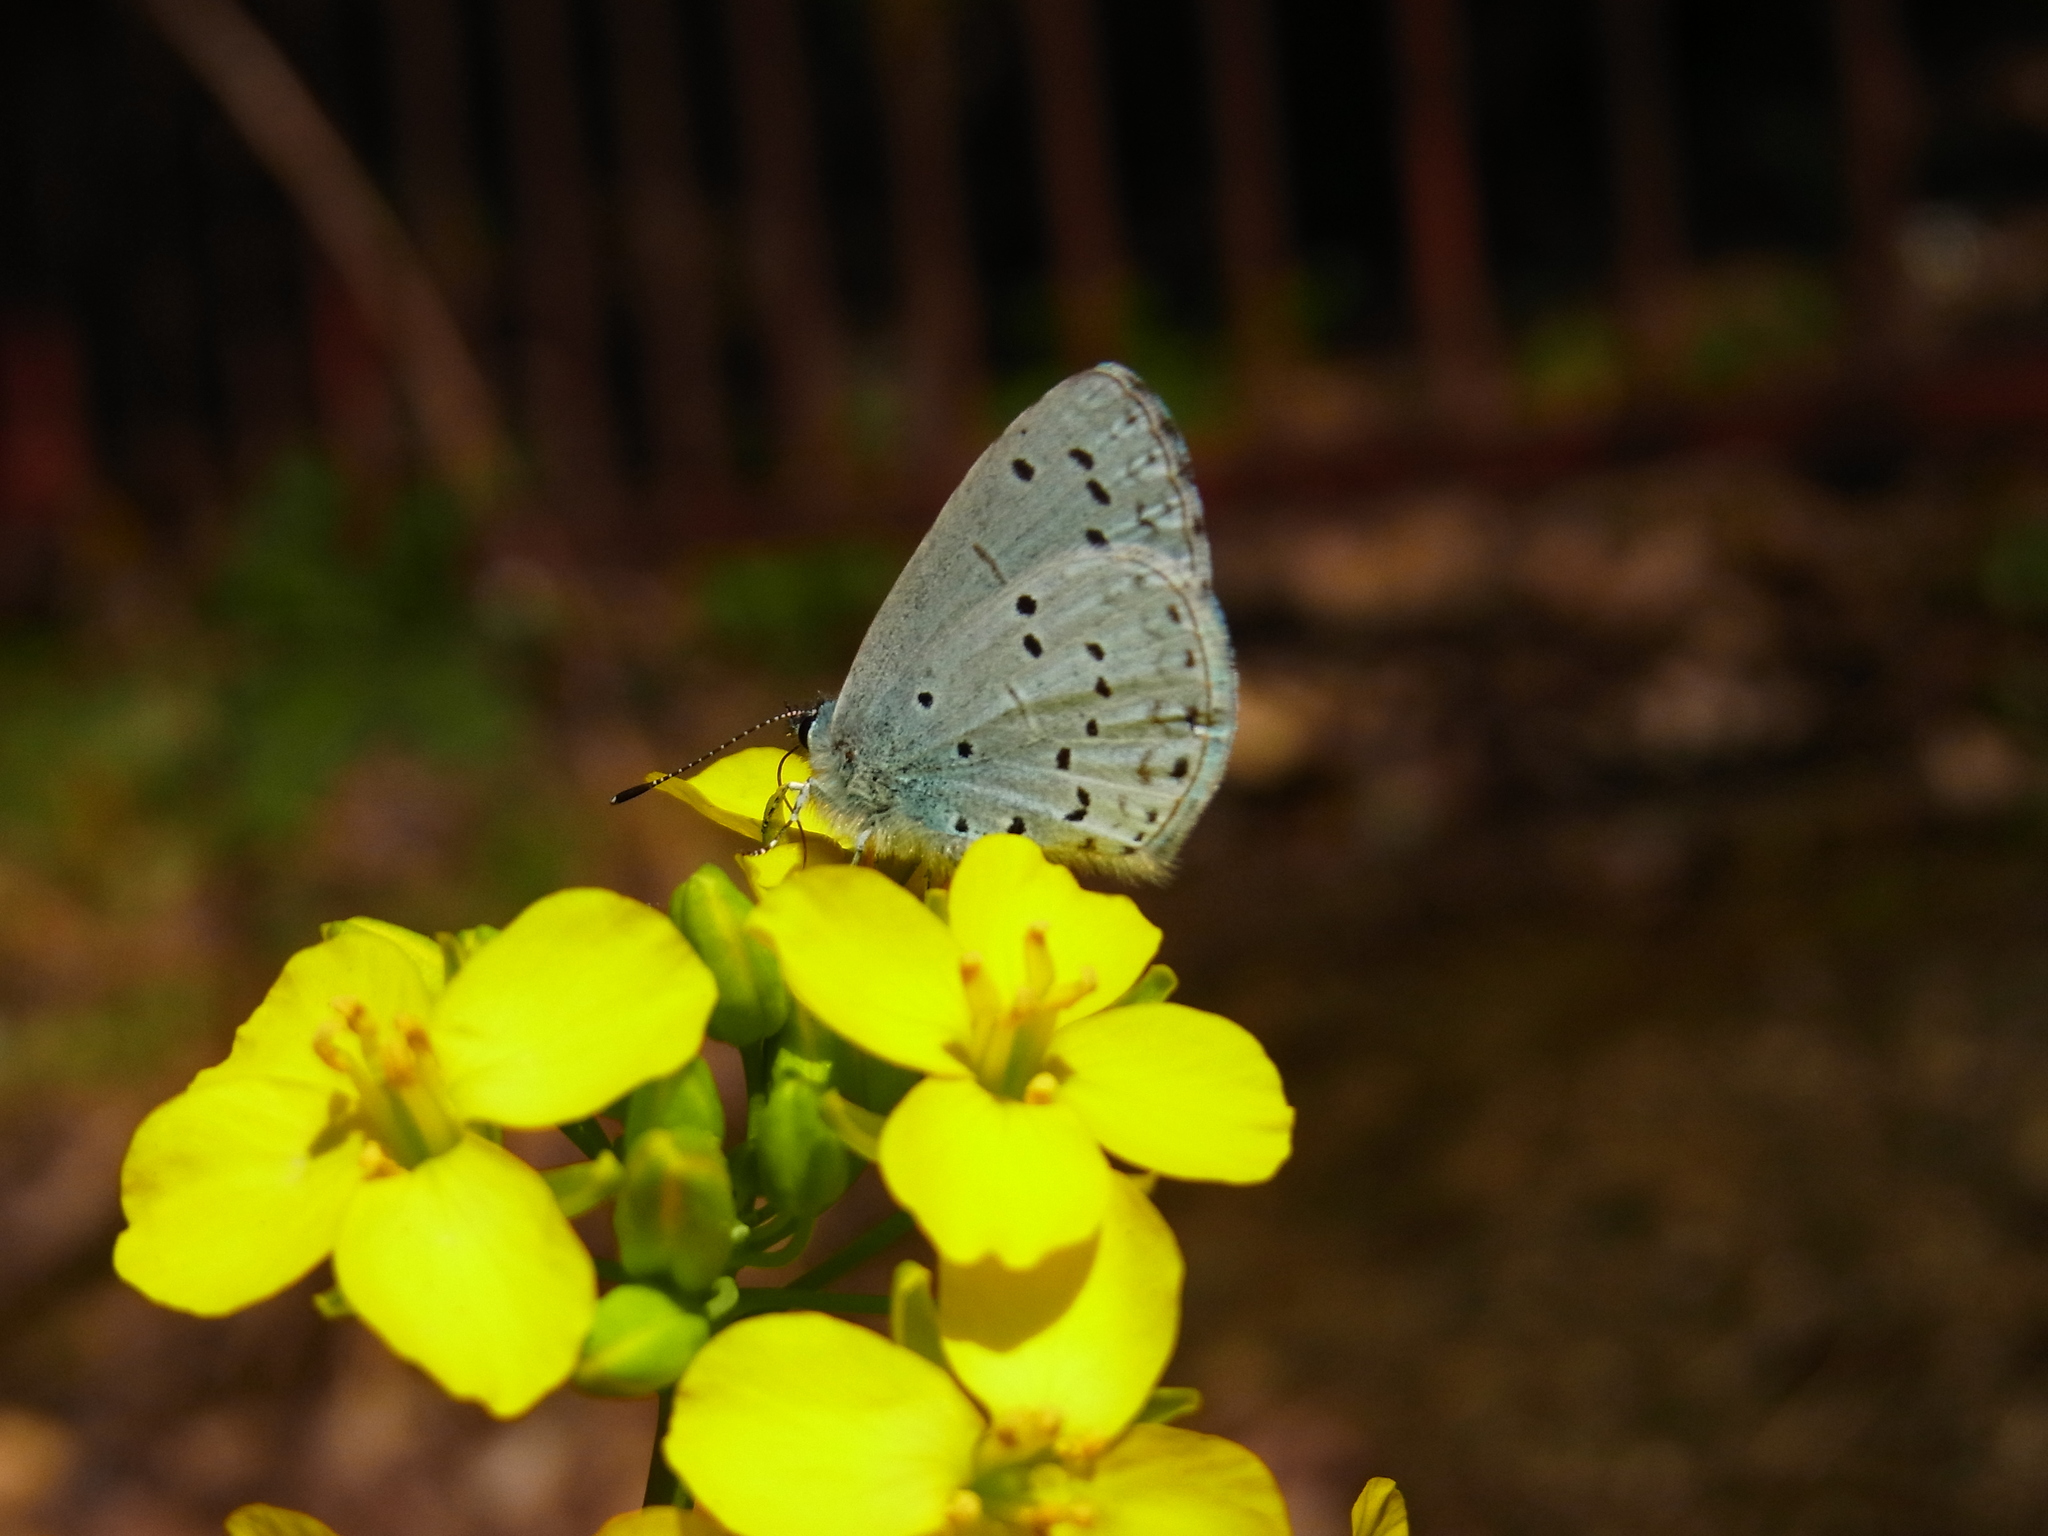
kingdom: Animalia
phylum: Arthropoda
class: Insecta
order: Lepidoptera
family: Lycaenidae
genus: Celastrina
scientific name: Celastrina argiolus
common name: Holly blue
